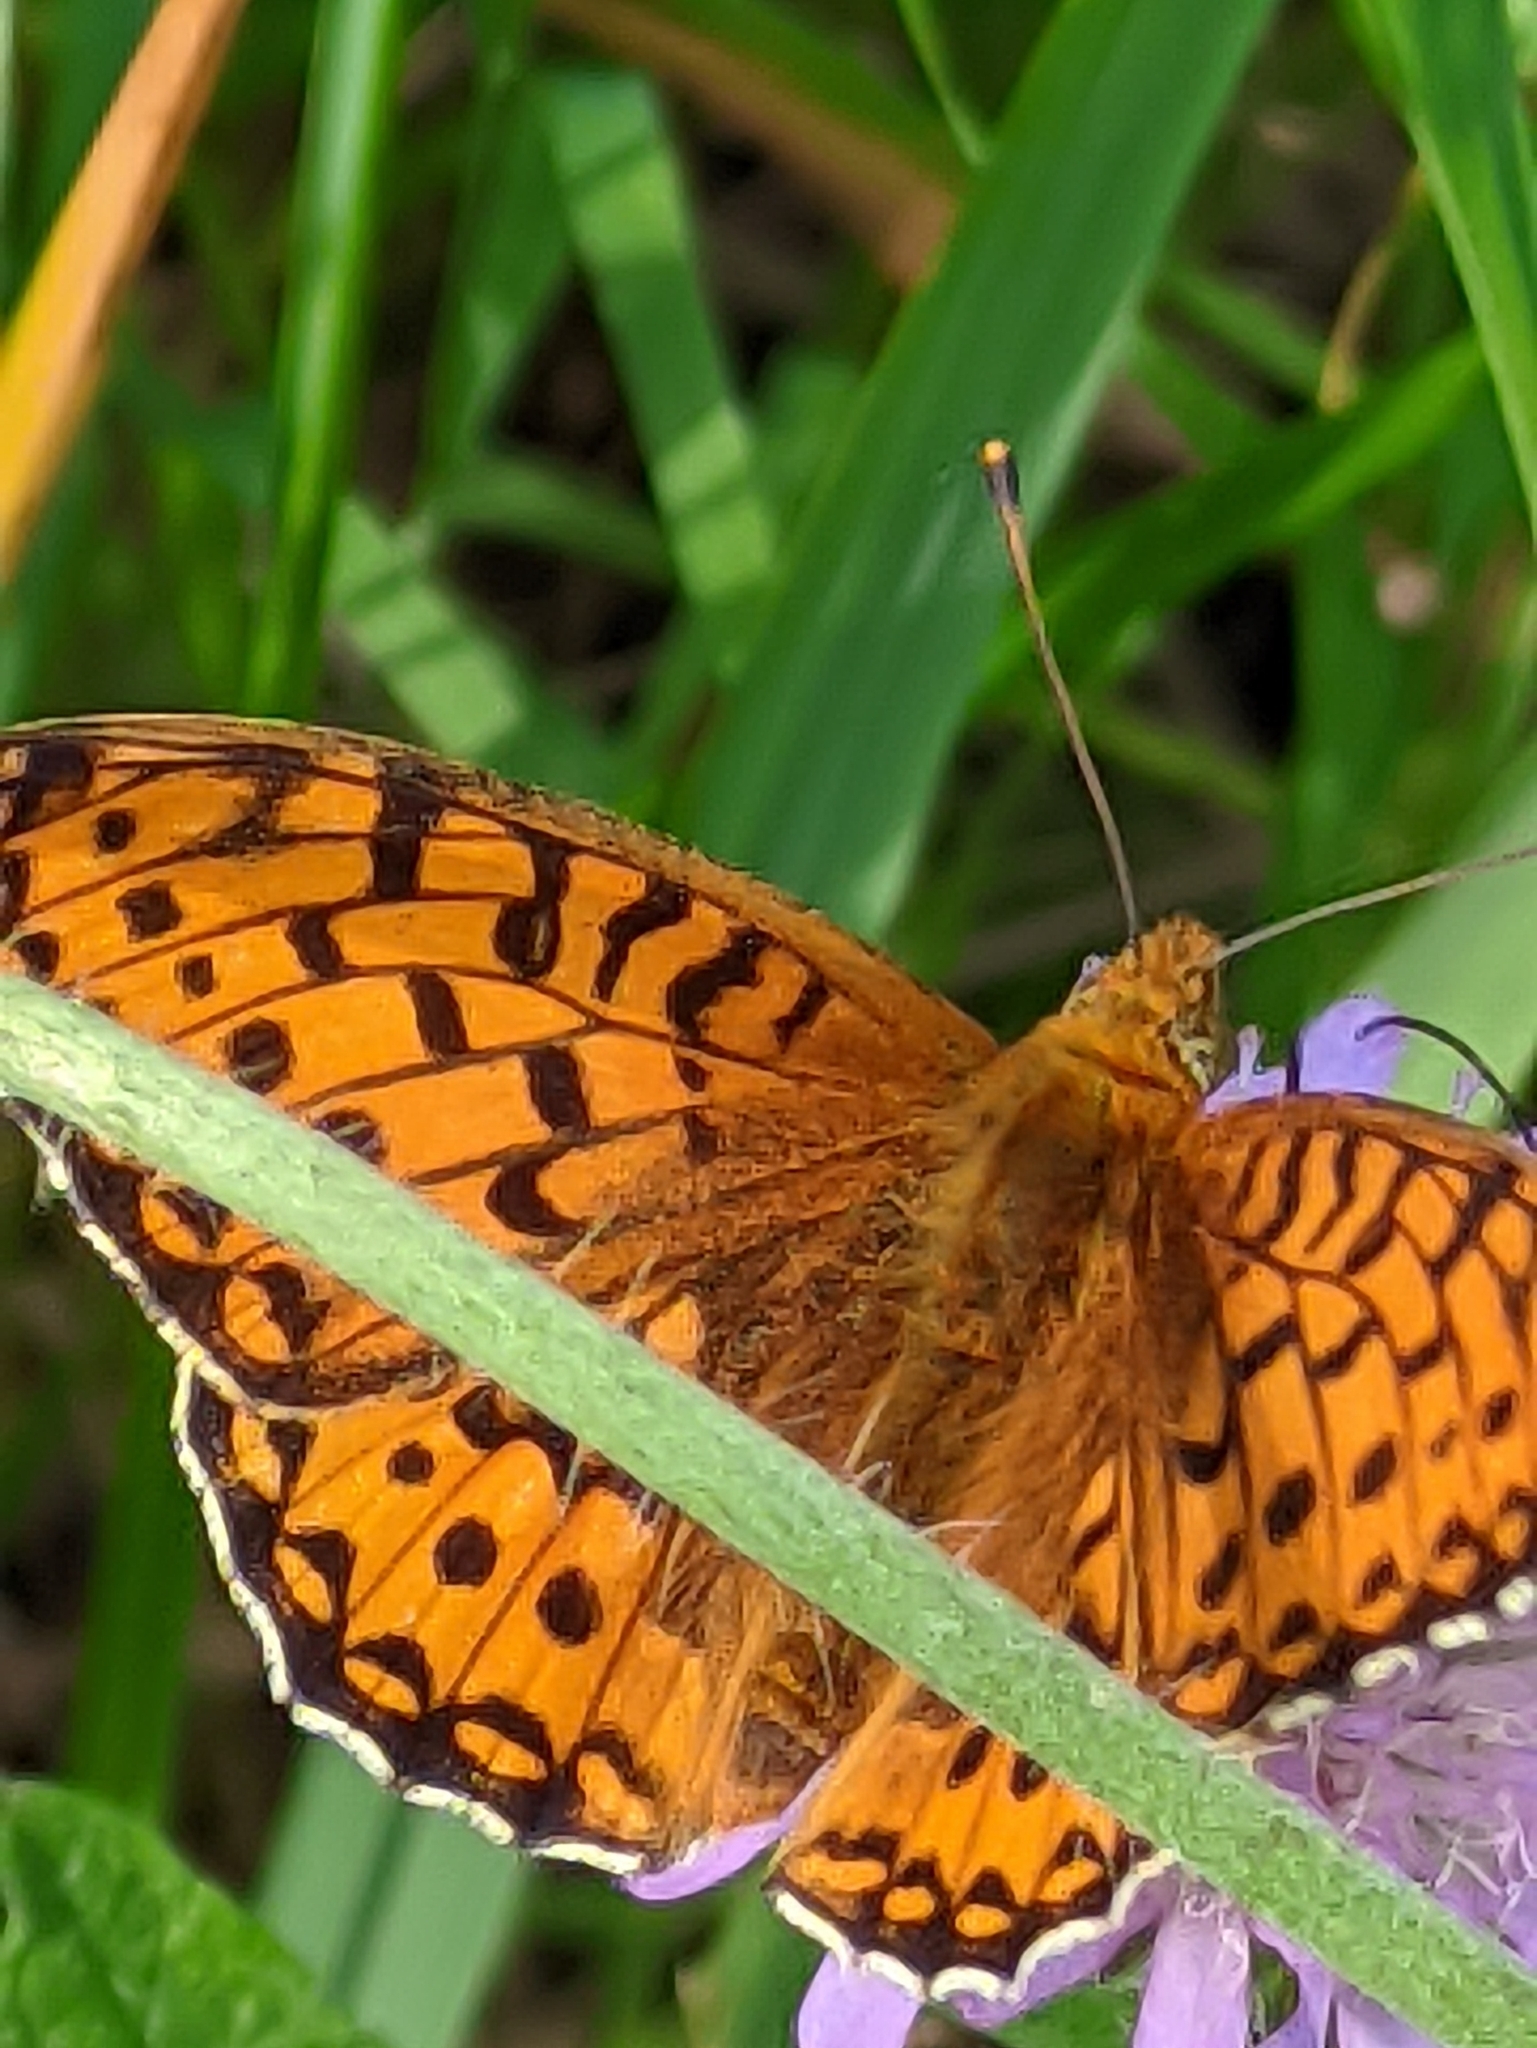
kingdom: Animalia
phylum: Arthropoda
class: Insecta
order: Lepidoptera
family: Nymphalidae
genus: Speyeria
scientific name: Speyeria aglaja
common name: Dark green fritillary
